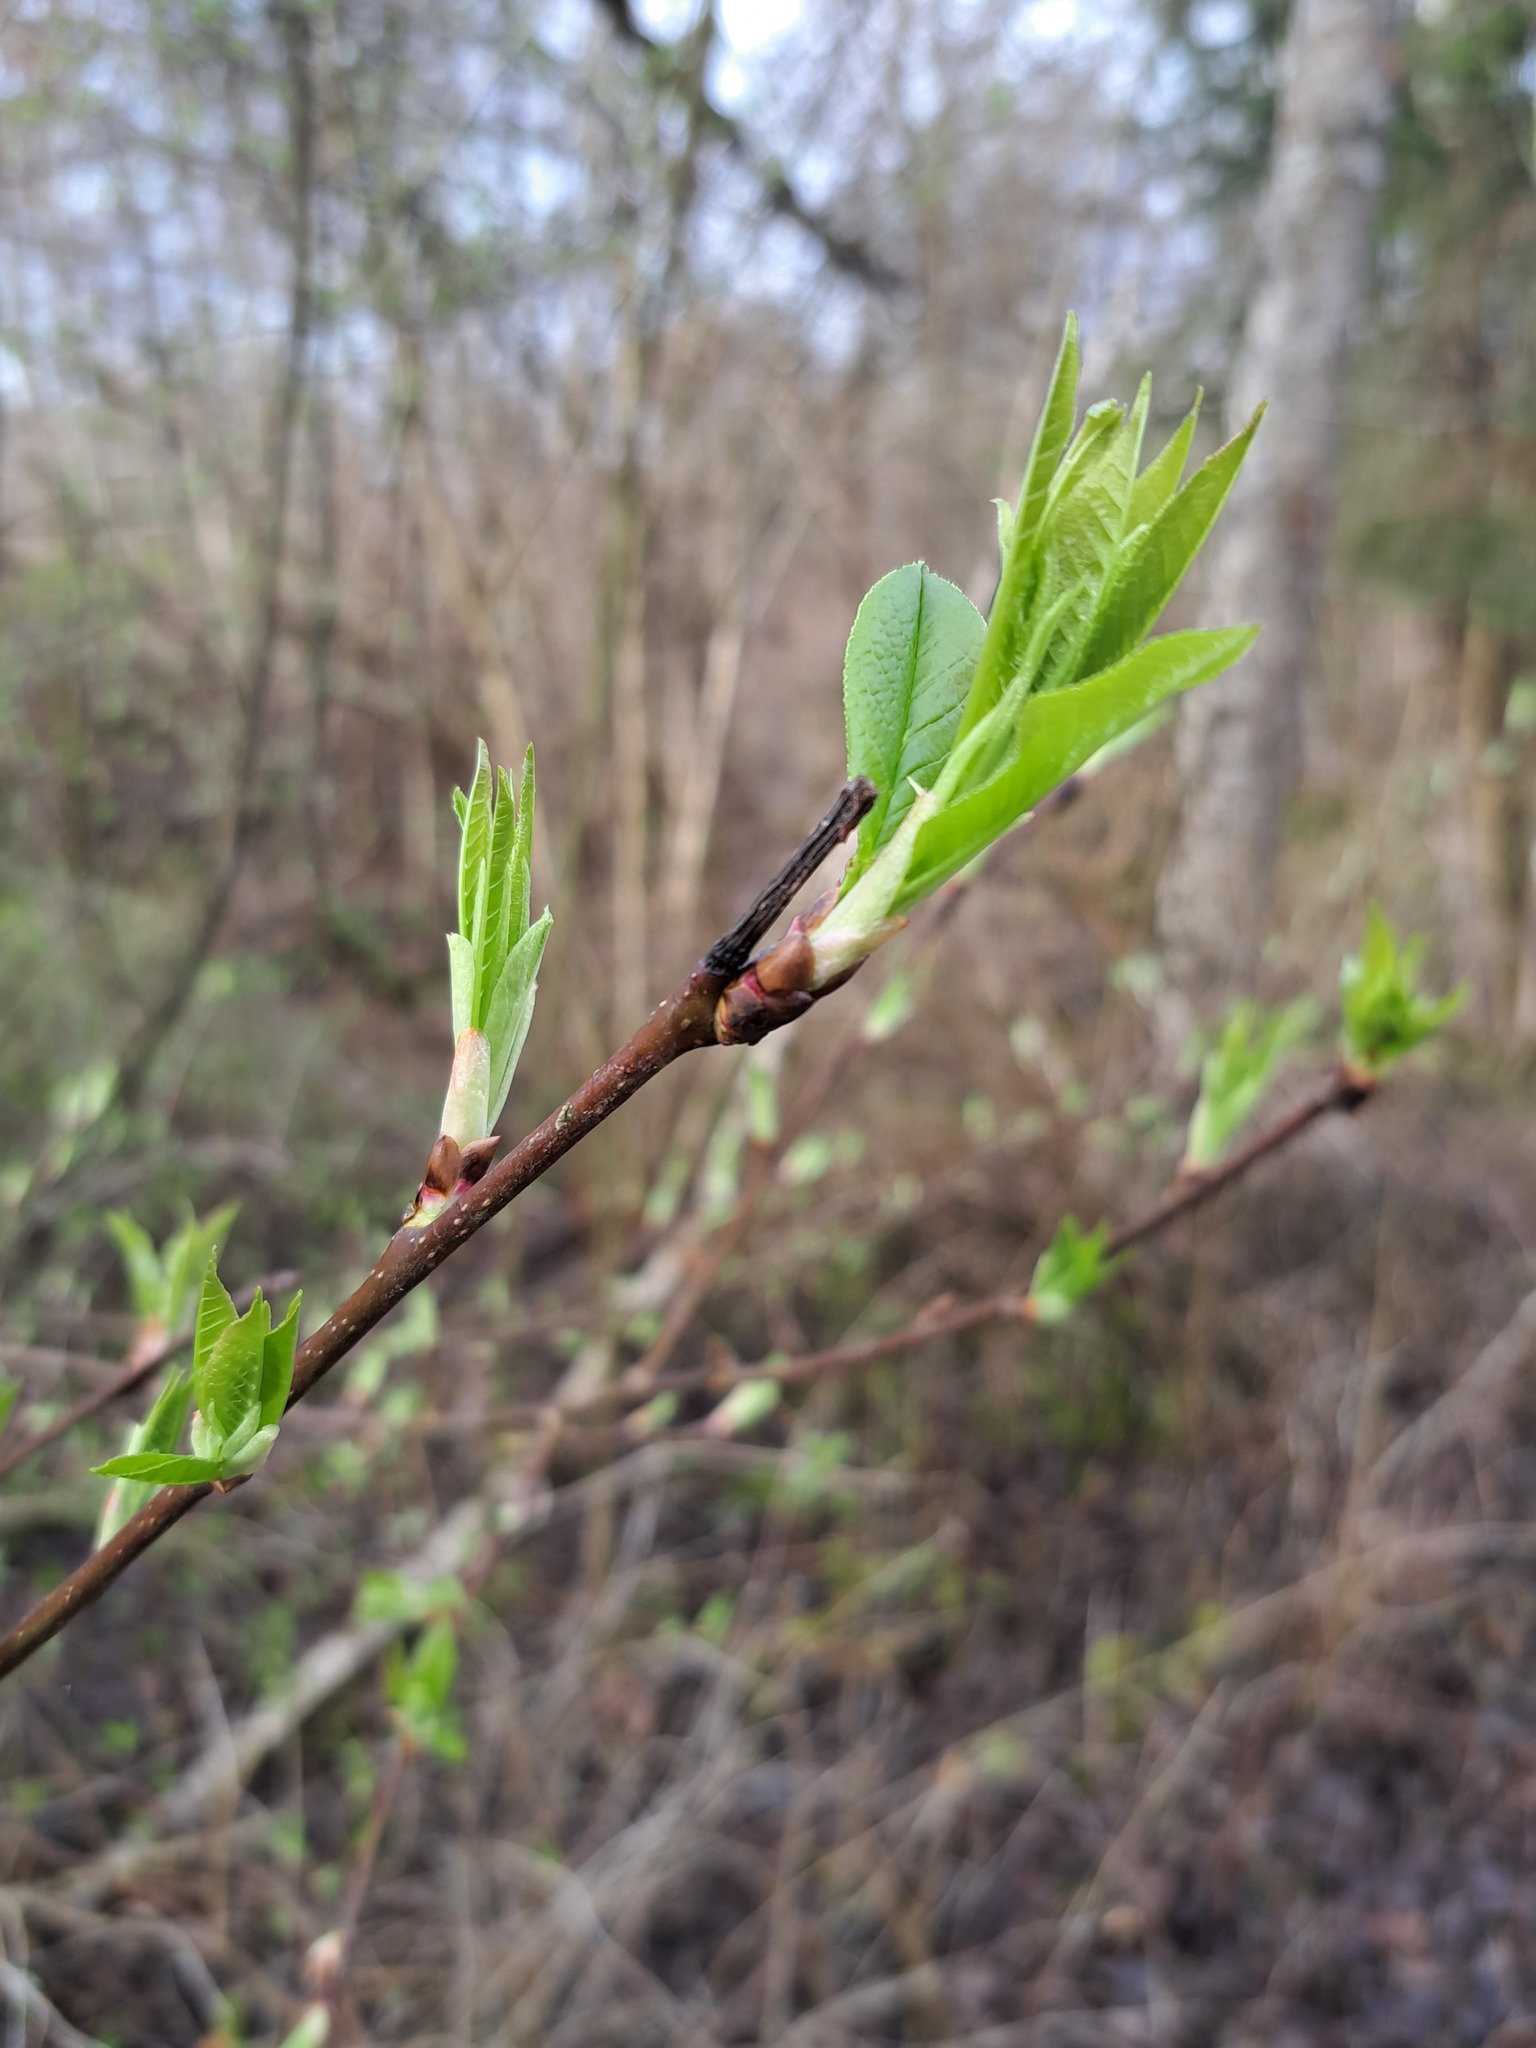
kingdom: Plantae
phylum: Tracheophyta
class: Magnoliopsida
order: Rosales
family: Rosaceae
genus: Prunus
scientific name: Prunus padus
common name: Bird cherry
